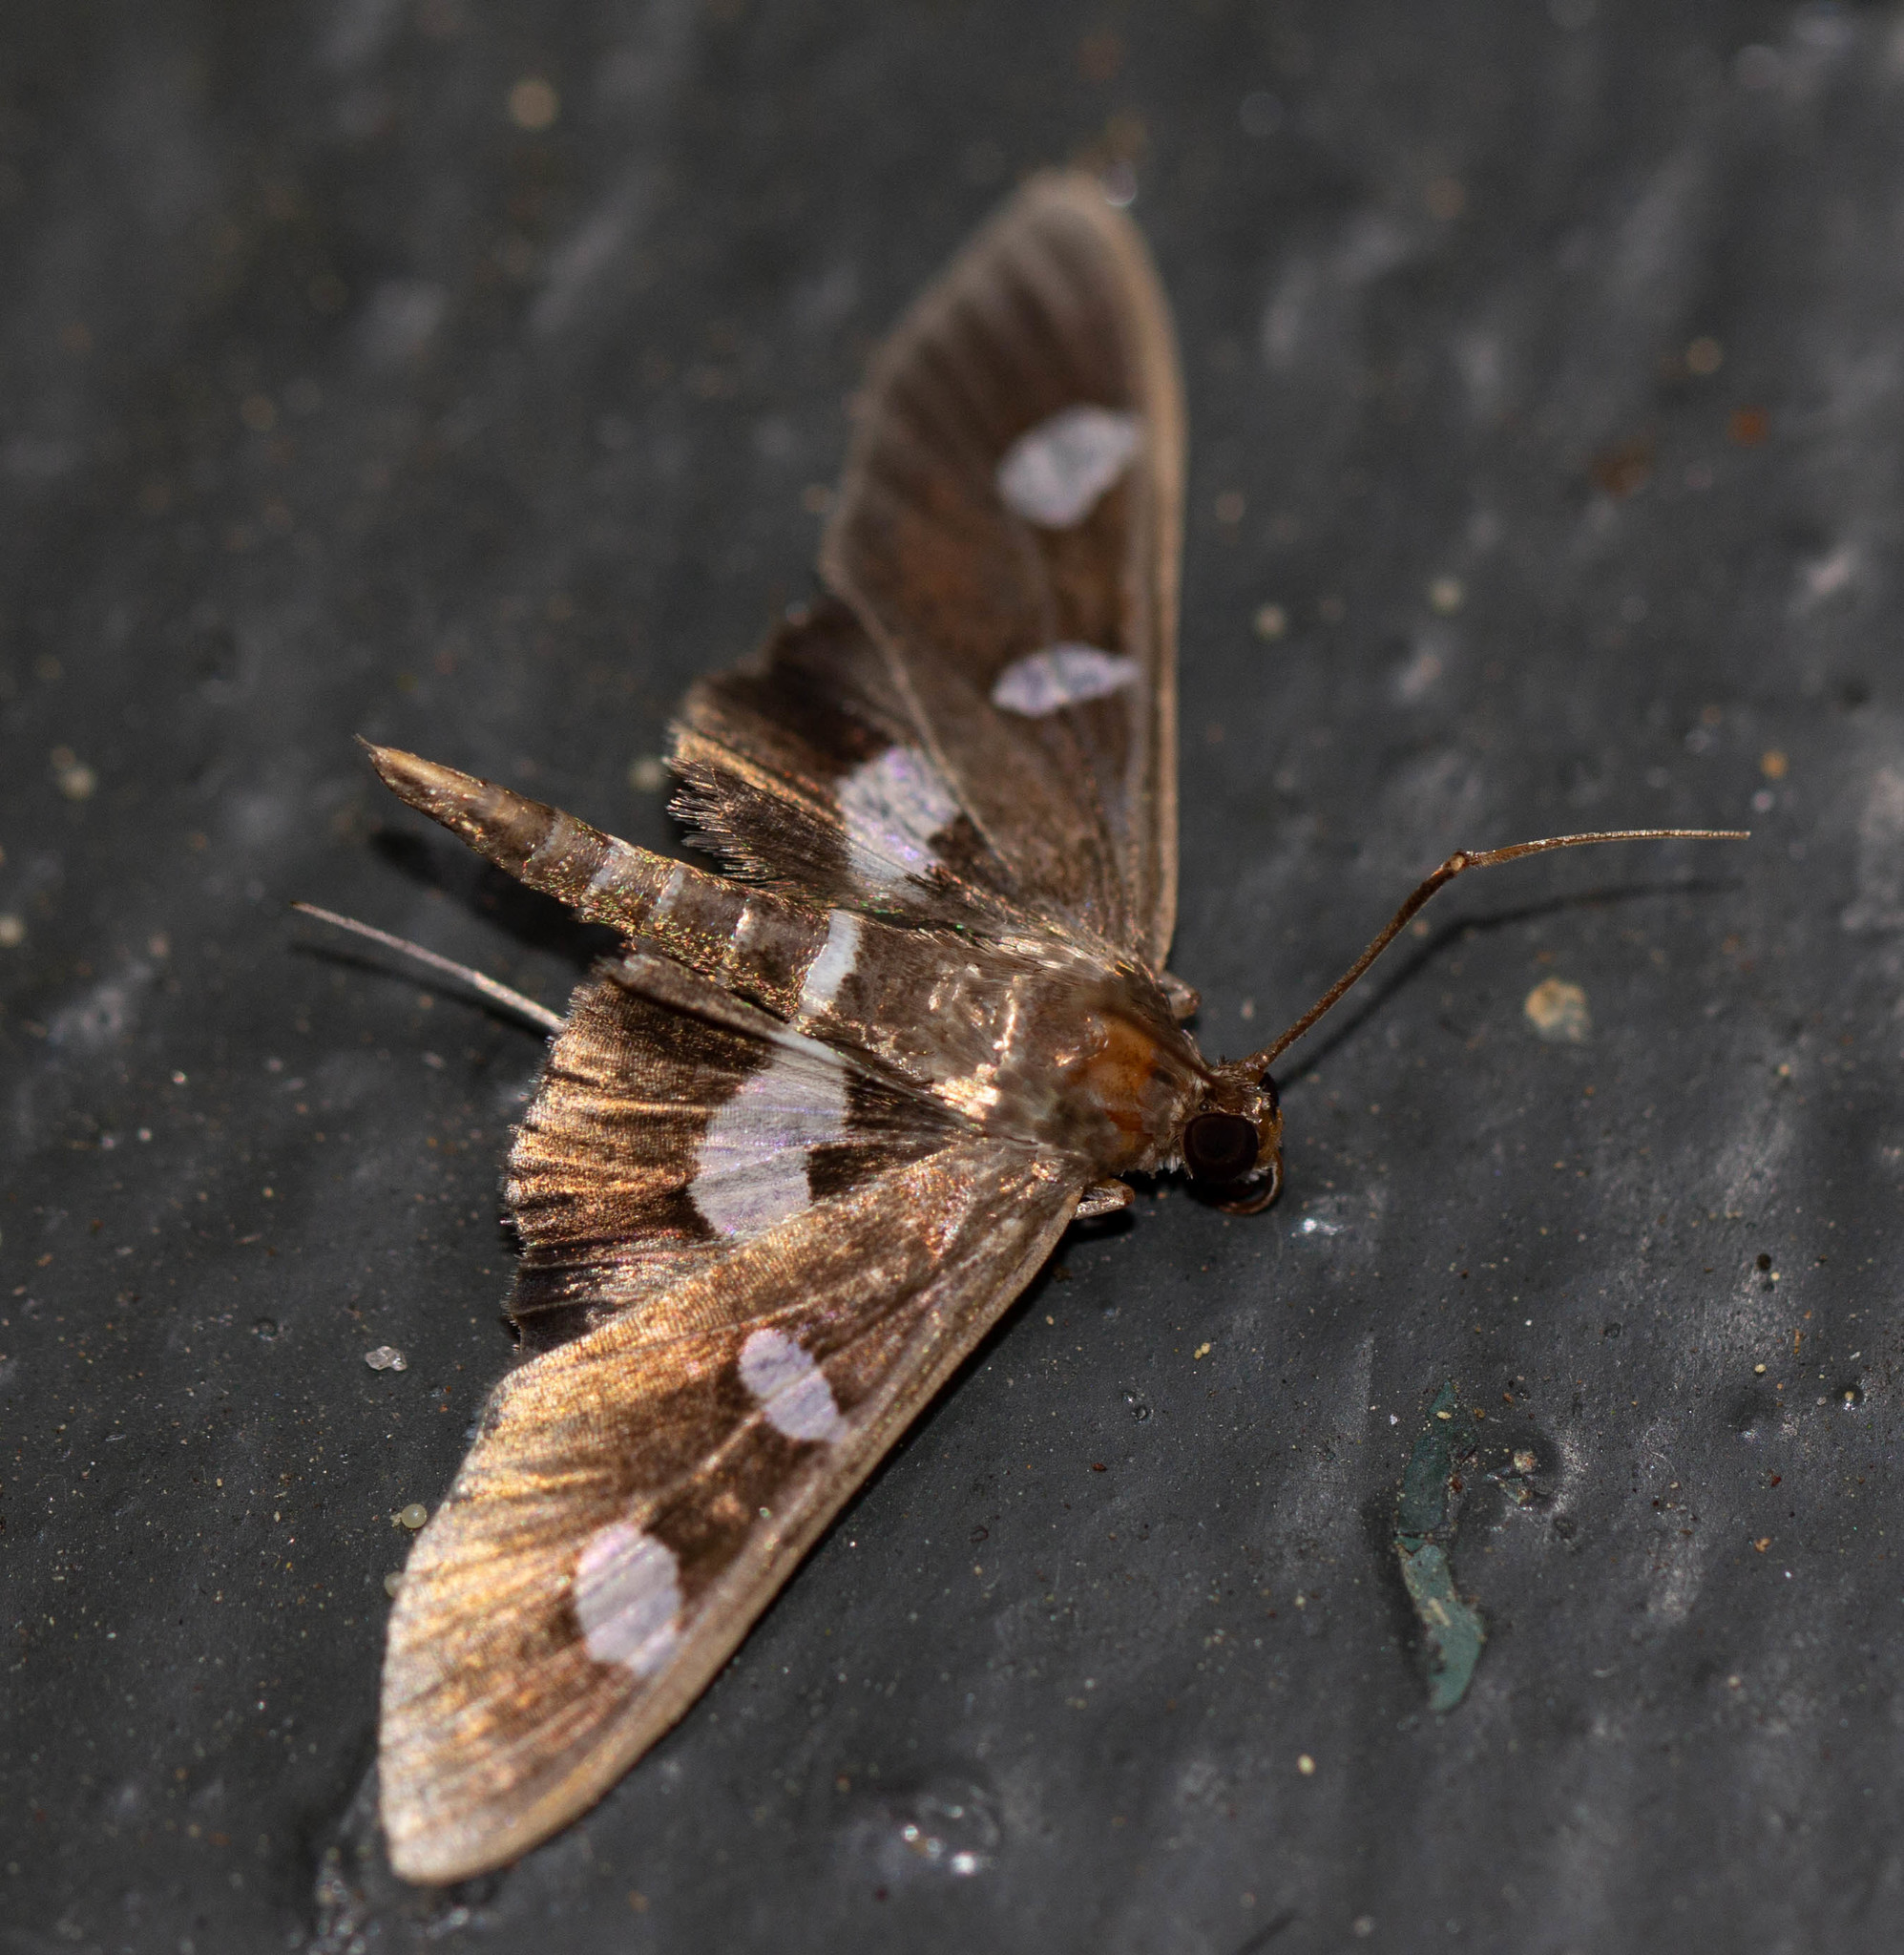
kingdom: Animalia
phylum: Arthropoda
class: Insecta
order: Lepidoptera
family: Crambidae
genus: Desmia
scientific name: Desmia
